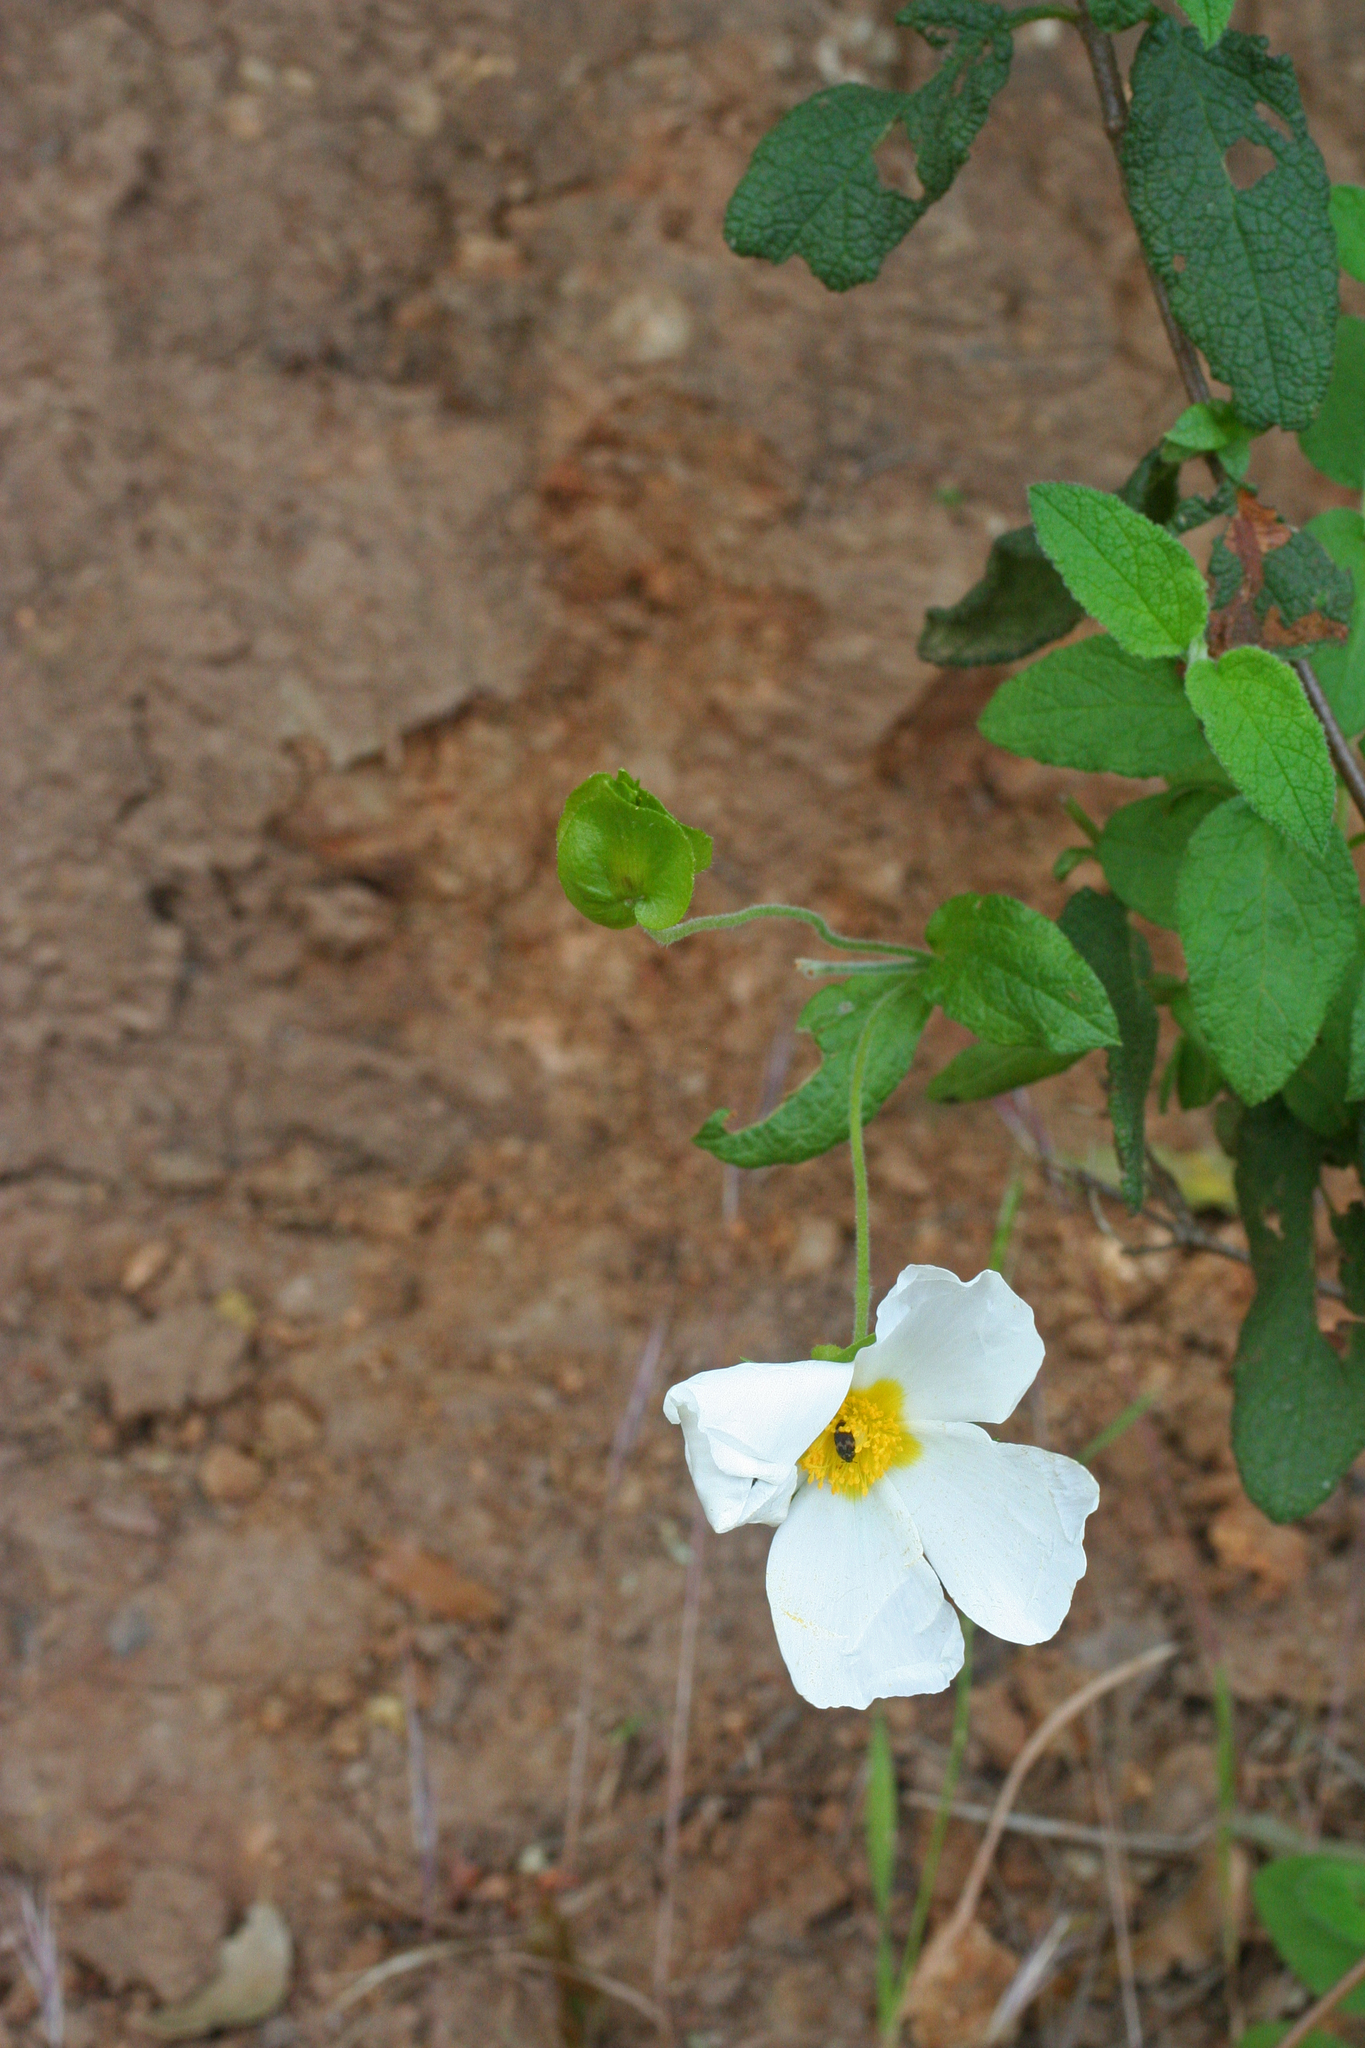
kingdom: Plantae
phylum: Tracheophyta
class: Magnoliopsida
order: Malvales
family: Cistaceae
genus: Cistus
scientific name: Cistus salviifolius
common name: Salvia cistus
